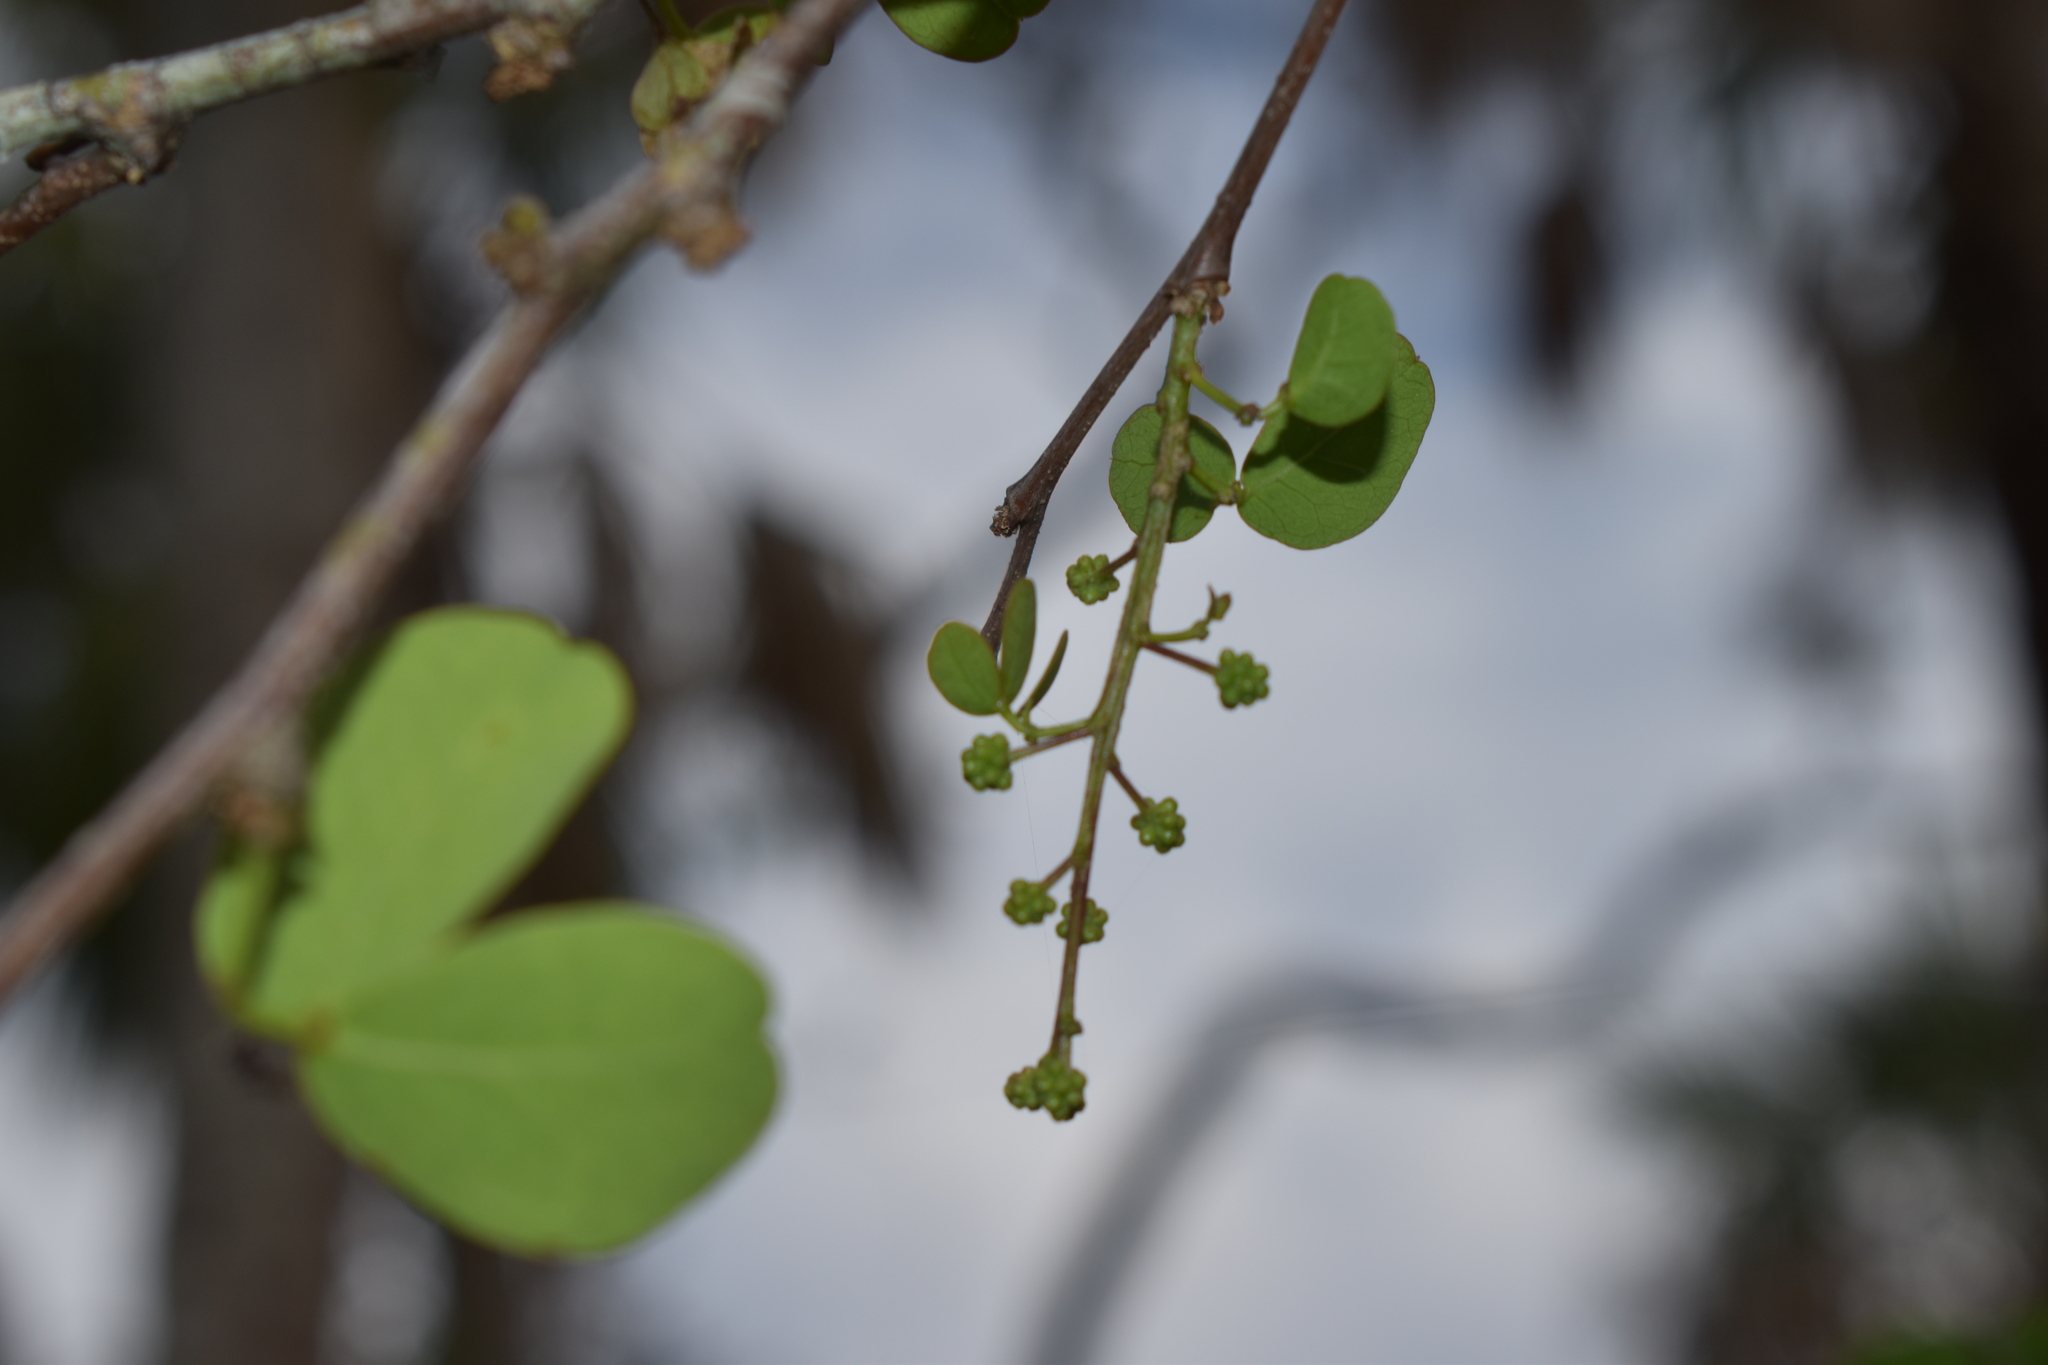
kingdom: Plantae
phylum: Tracheophyta
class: Magnoliopsida
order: Fabales
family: Fabaceae
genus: Pithecellobium
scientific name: Pithecellobium unguis-cati
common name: Cat's-claw
